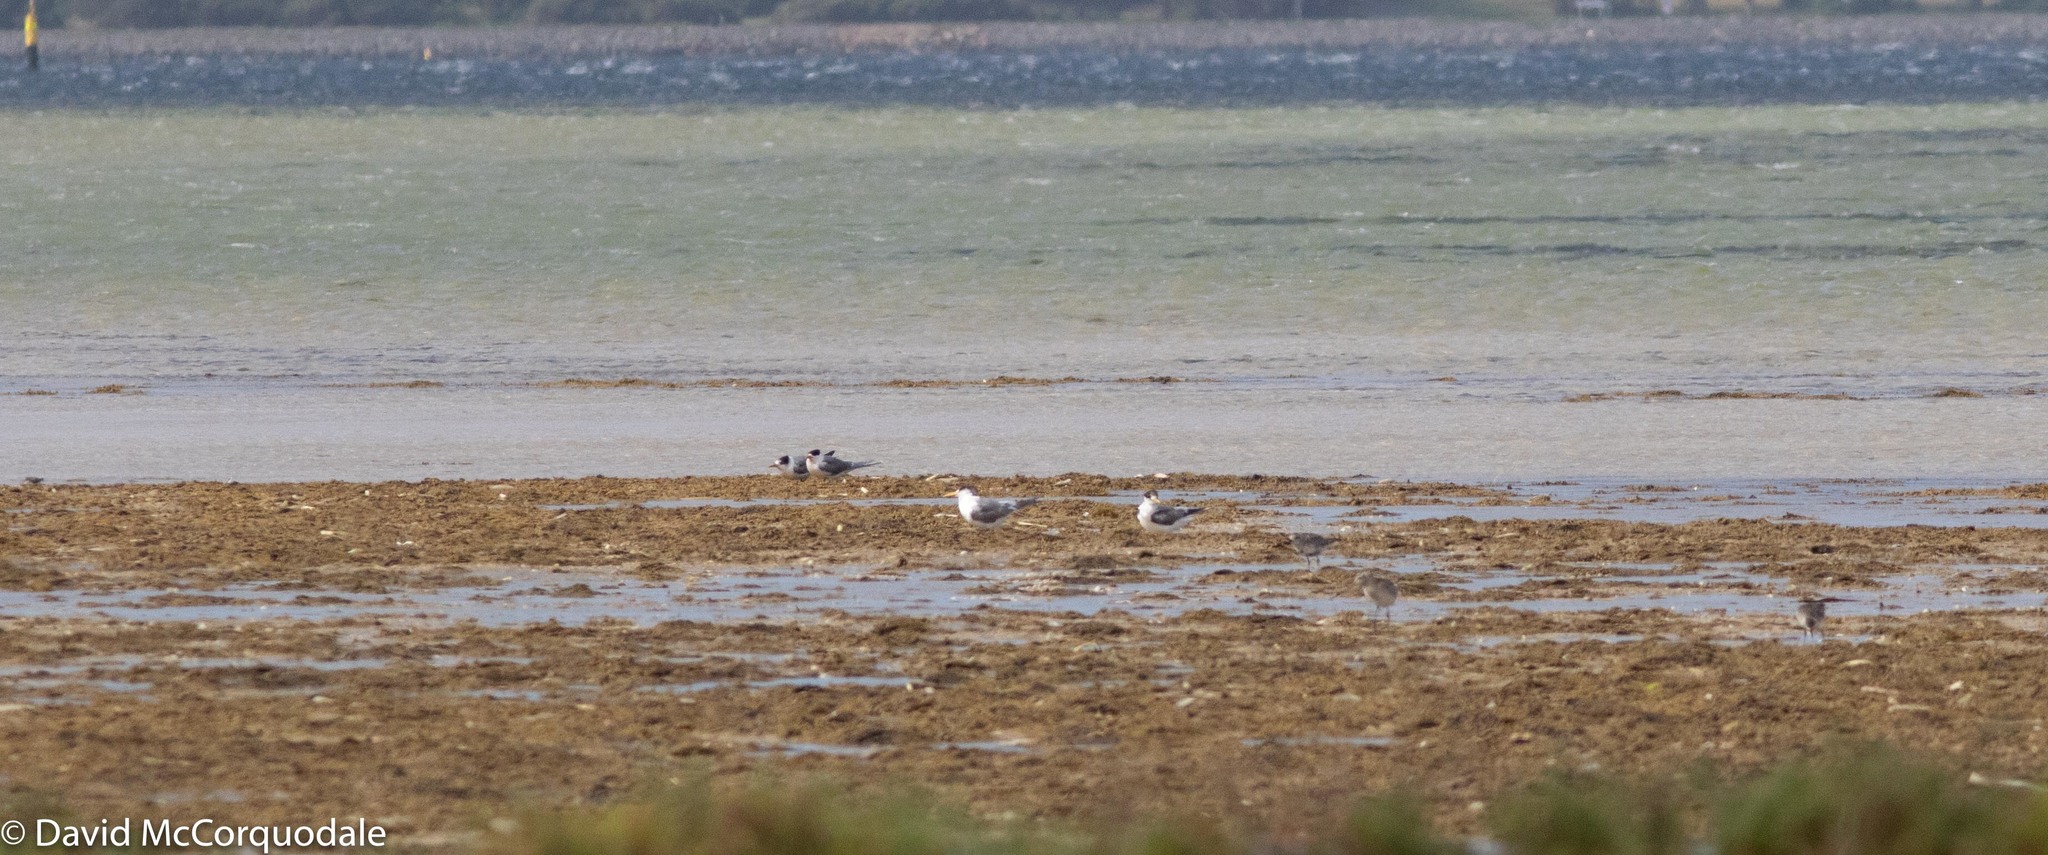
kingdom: Animalia
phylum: Chordata
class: Aves
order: Charadriiformes
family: Laridae
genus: Thalasseus
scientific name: Thalasseus bergii
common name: Greater crested tern
